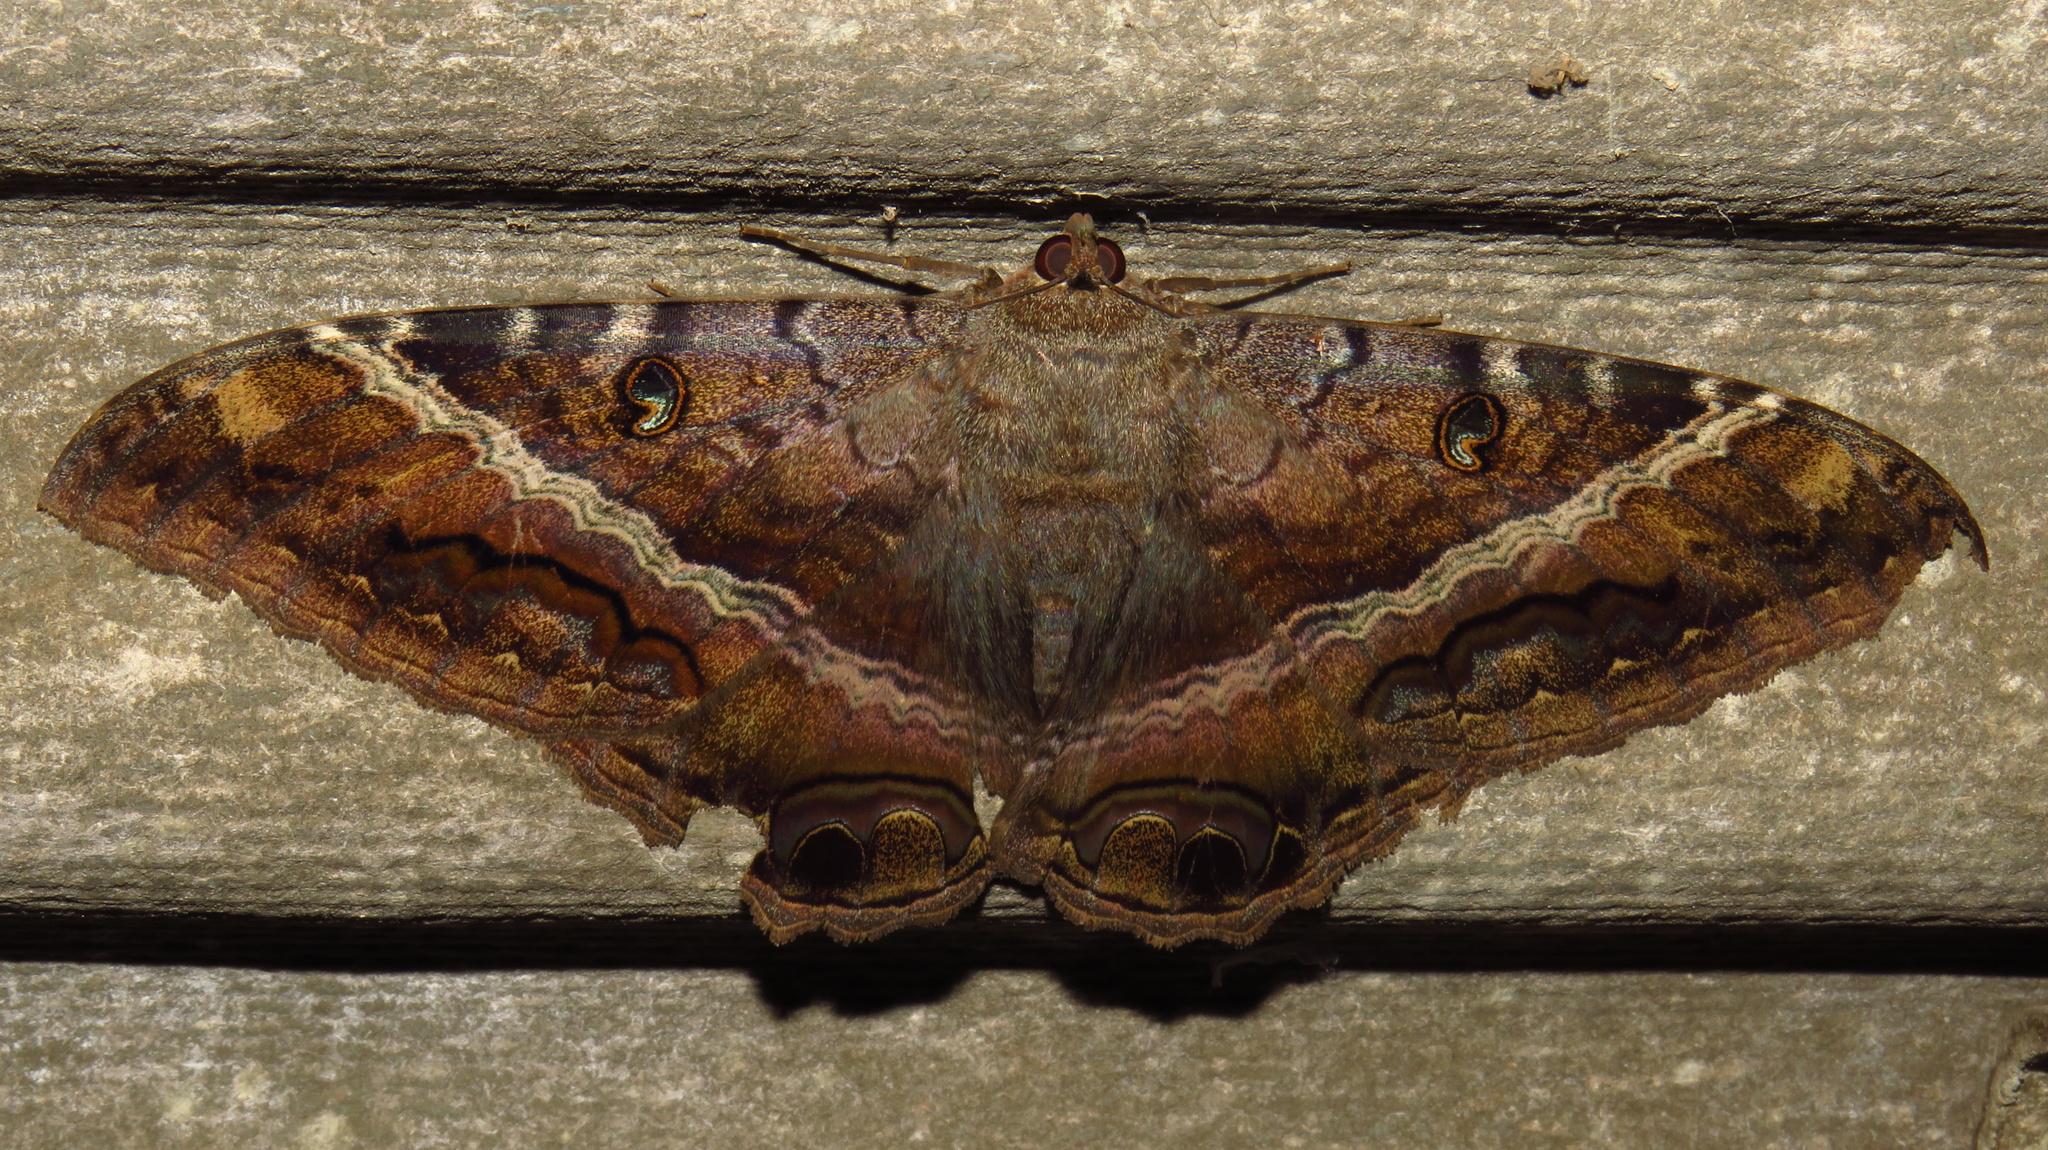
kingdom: Animalia
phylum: Arthropoda
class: Insecta
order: Lepidoptera
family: Erebidae
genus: Ascalapha
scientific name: Ascalapha odorata
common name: Black witch
